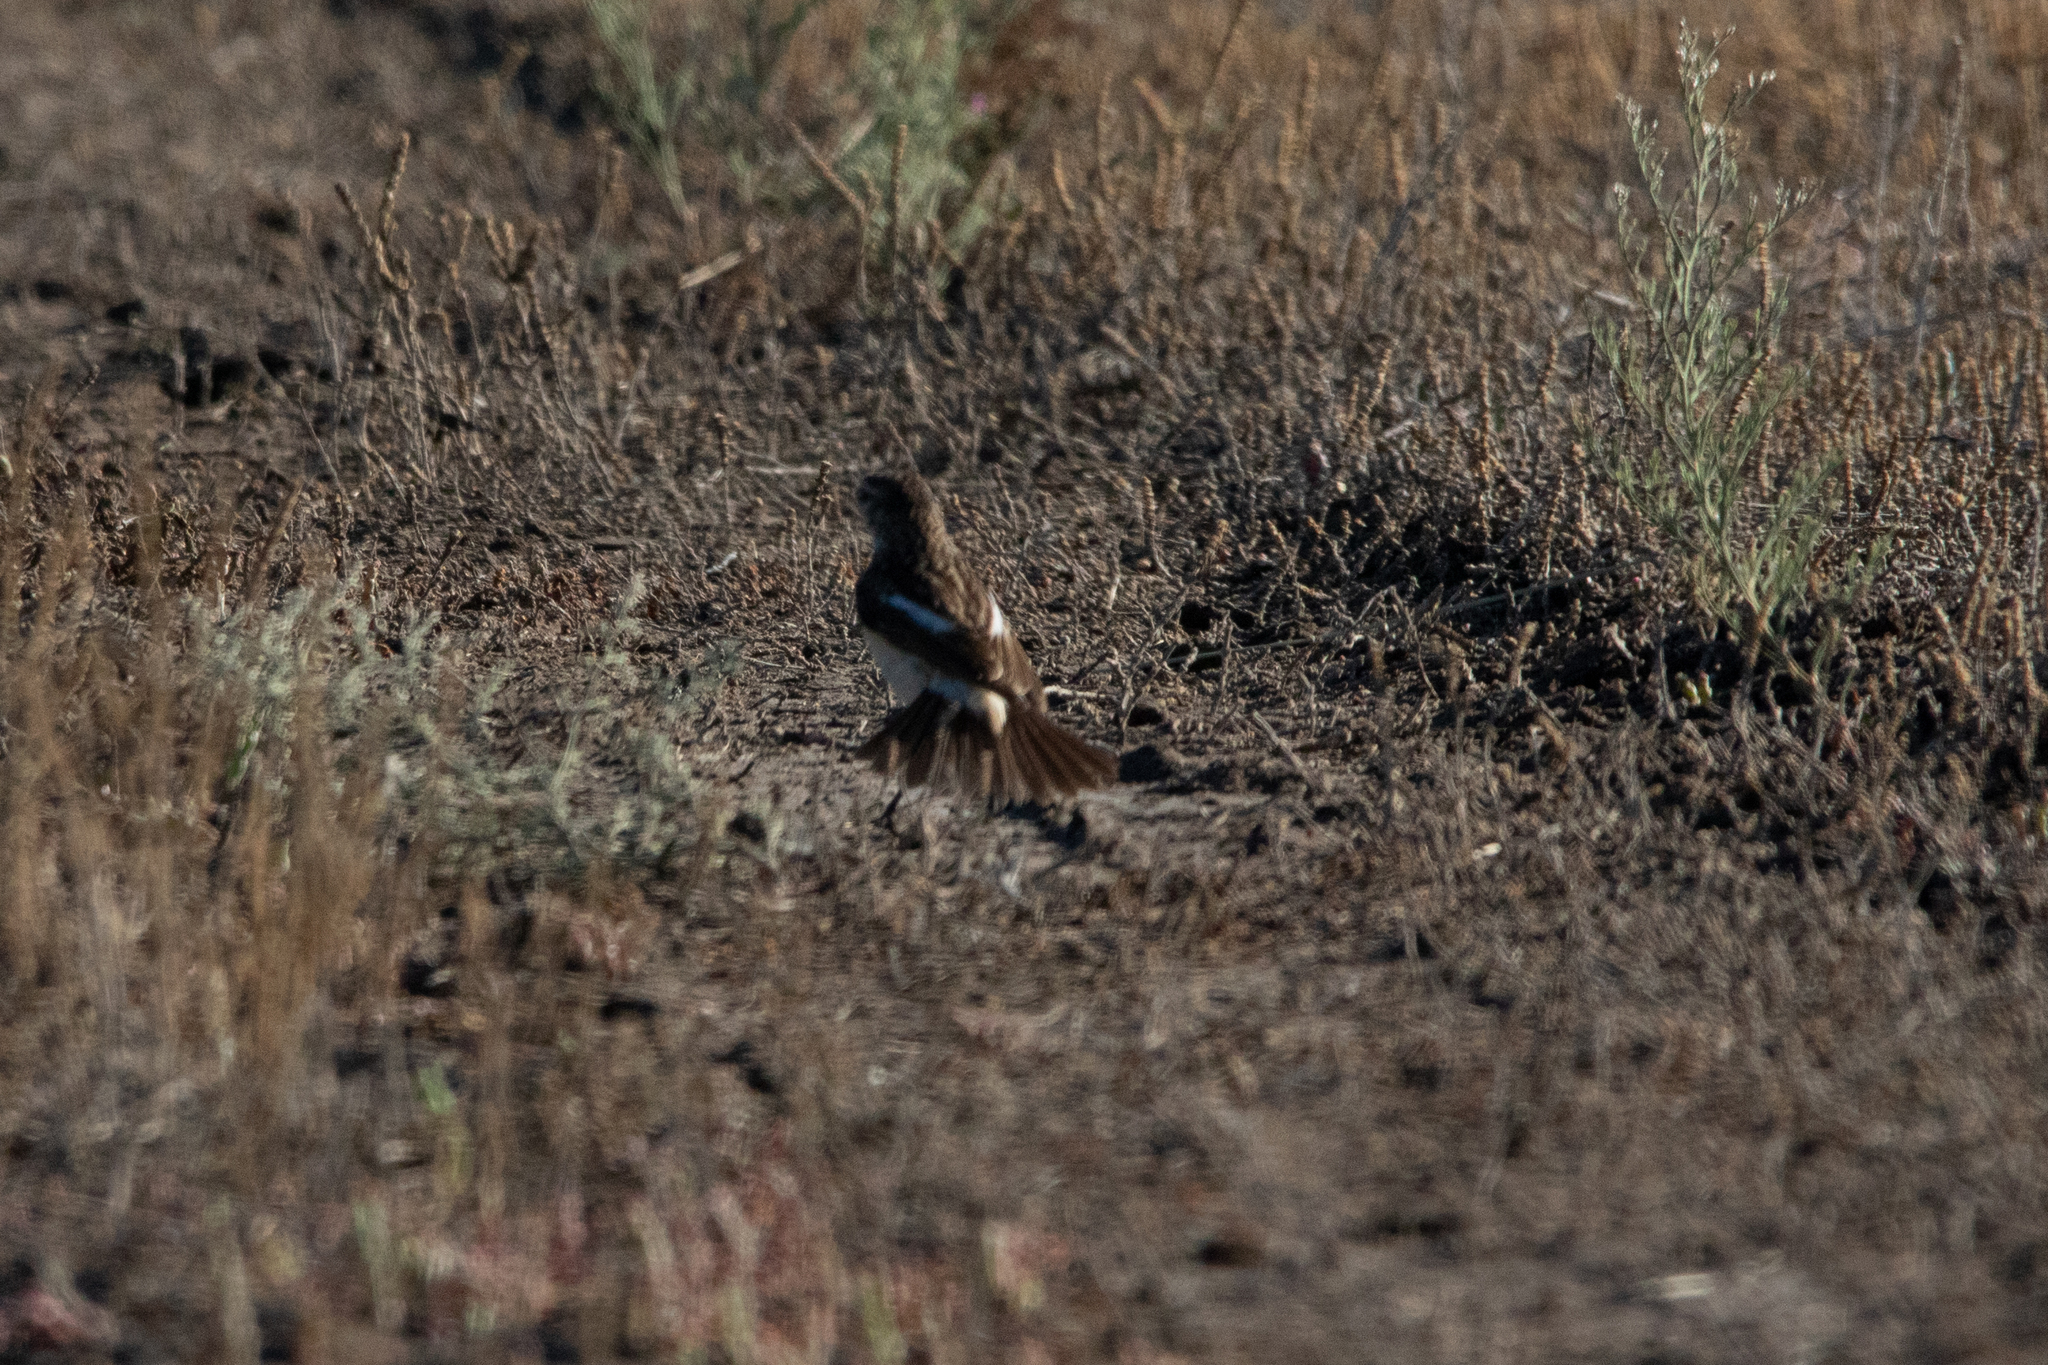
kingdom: Animalia
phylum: Chordata
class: Aves
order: Passeriformes
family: Muscicapidae
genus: Saxicola
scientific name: Saxicola maurus
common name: Siberian stonechat
